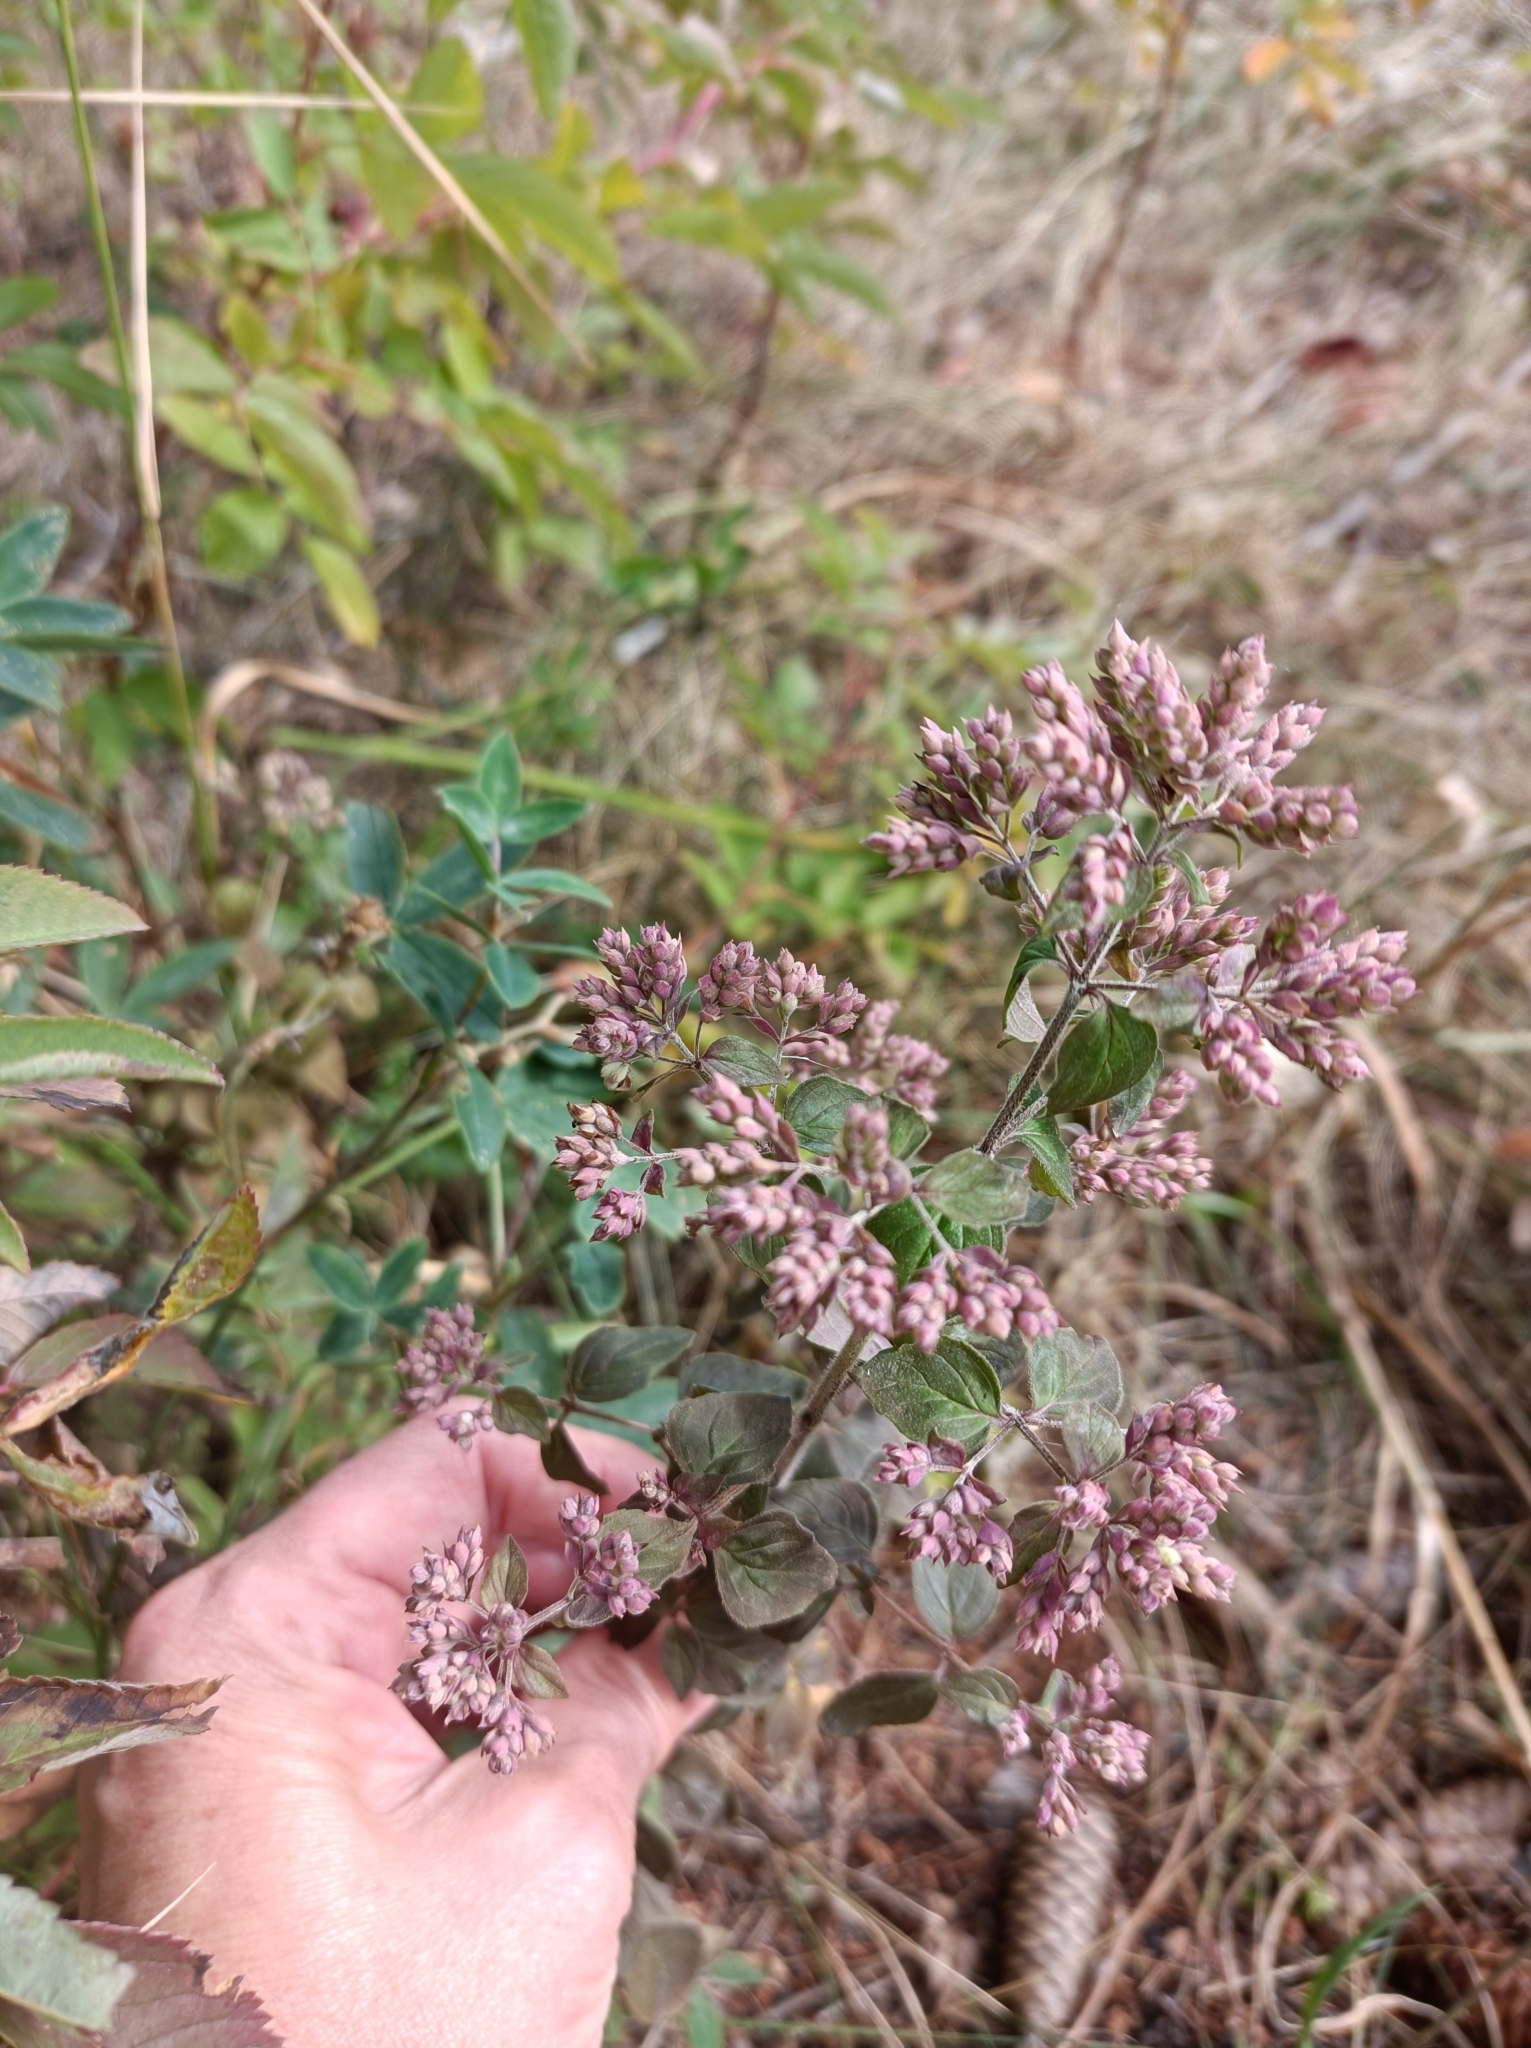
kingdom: Plantae
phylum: Tracheophyta
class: Magnoliopsida
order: Lamiales
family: Lamiaceae
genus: Origanum
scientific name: Origanum vulgare
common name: Wild marjoram
